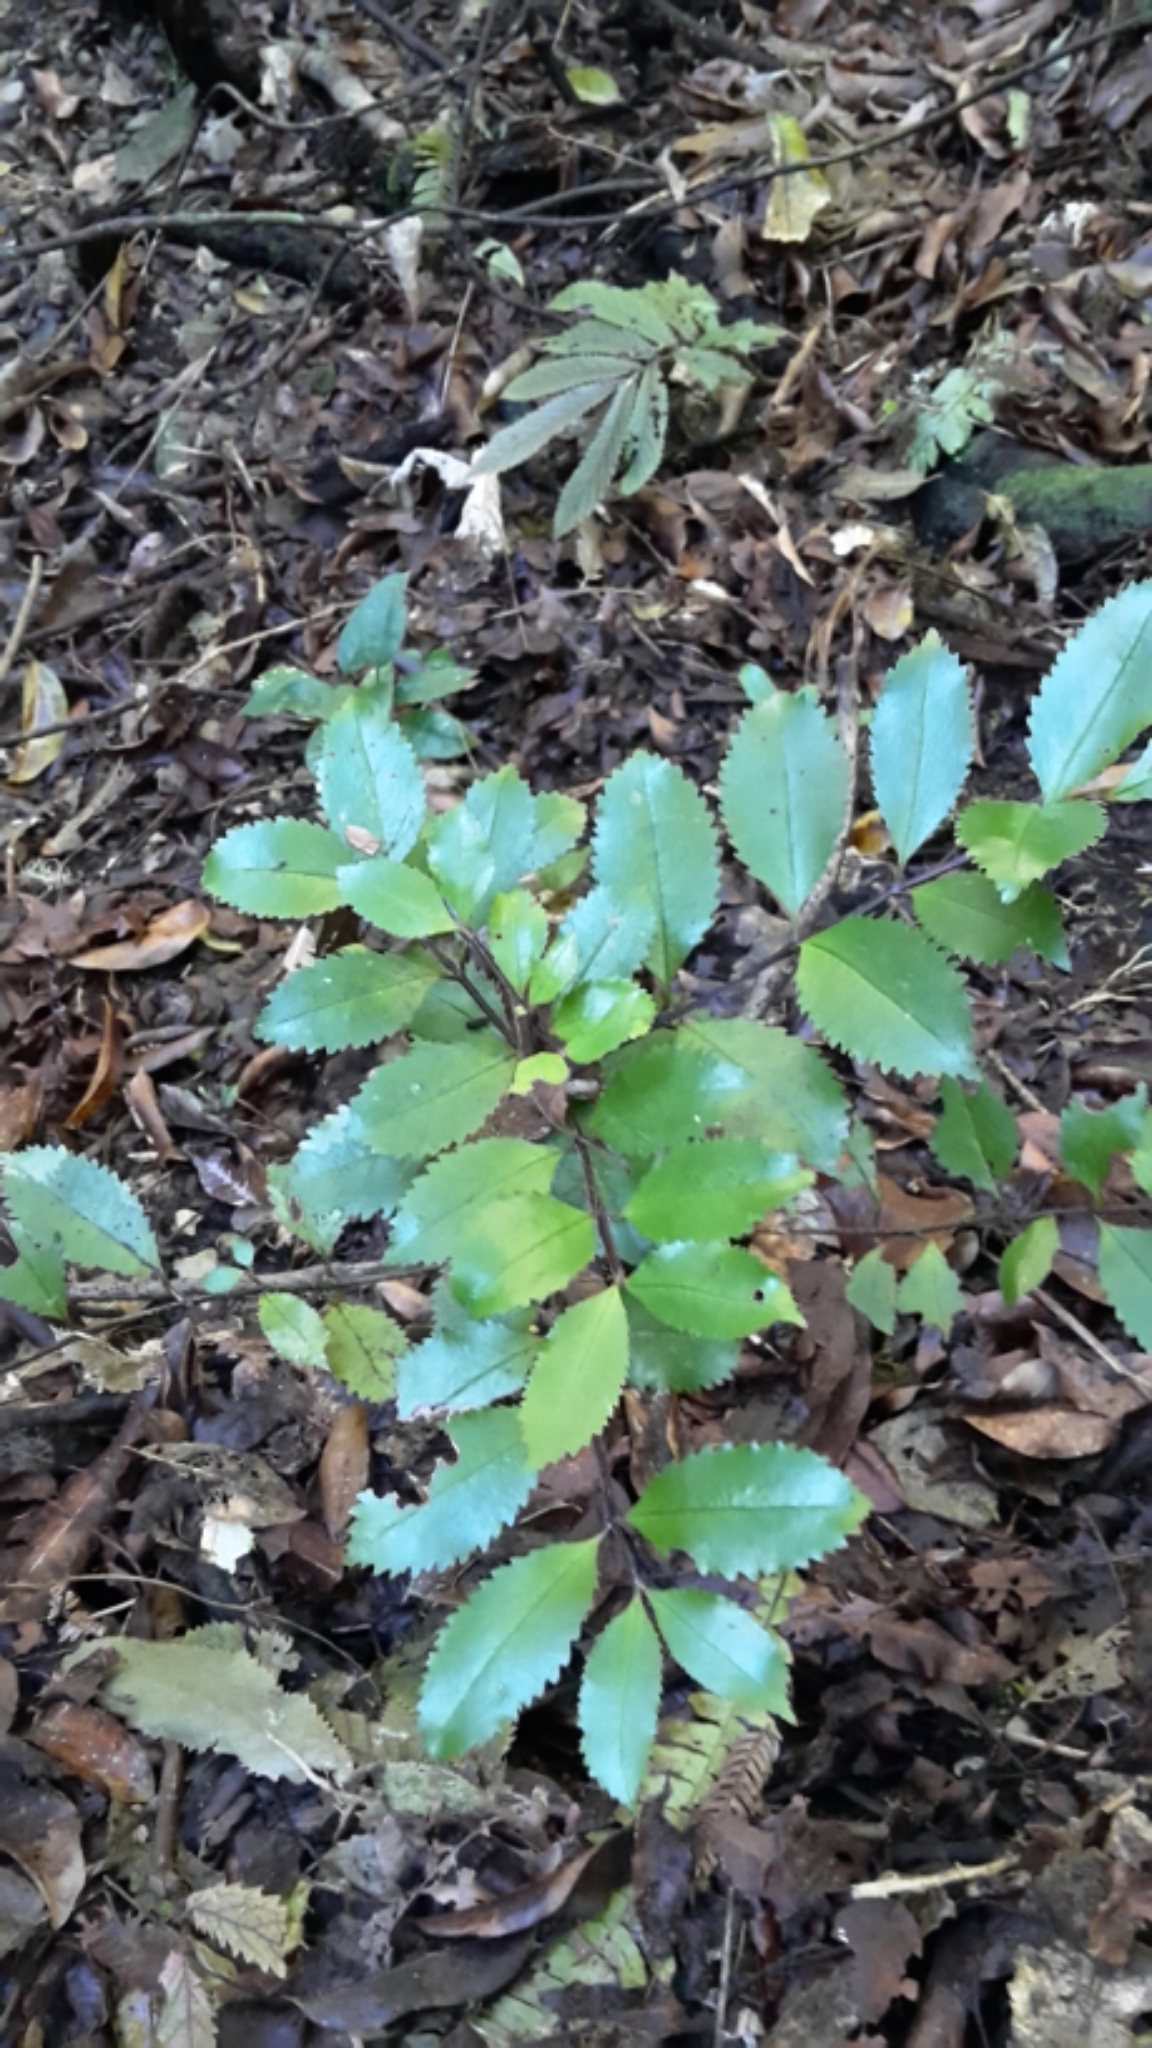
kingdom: Plantae
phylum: Tracheophyta
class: Magnoliopsida
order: Laurales
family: Atherospermataceae
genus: Laurelia
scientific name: Laurelia novae-zelandiae
